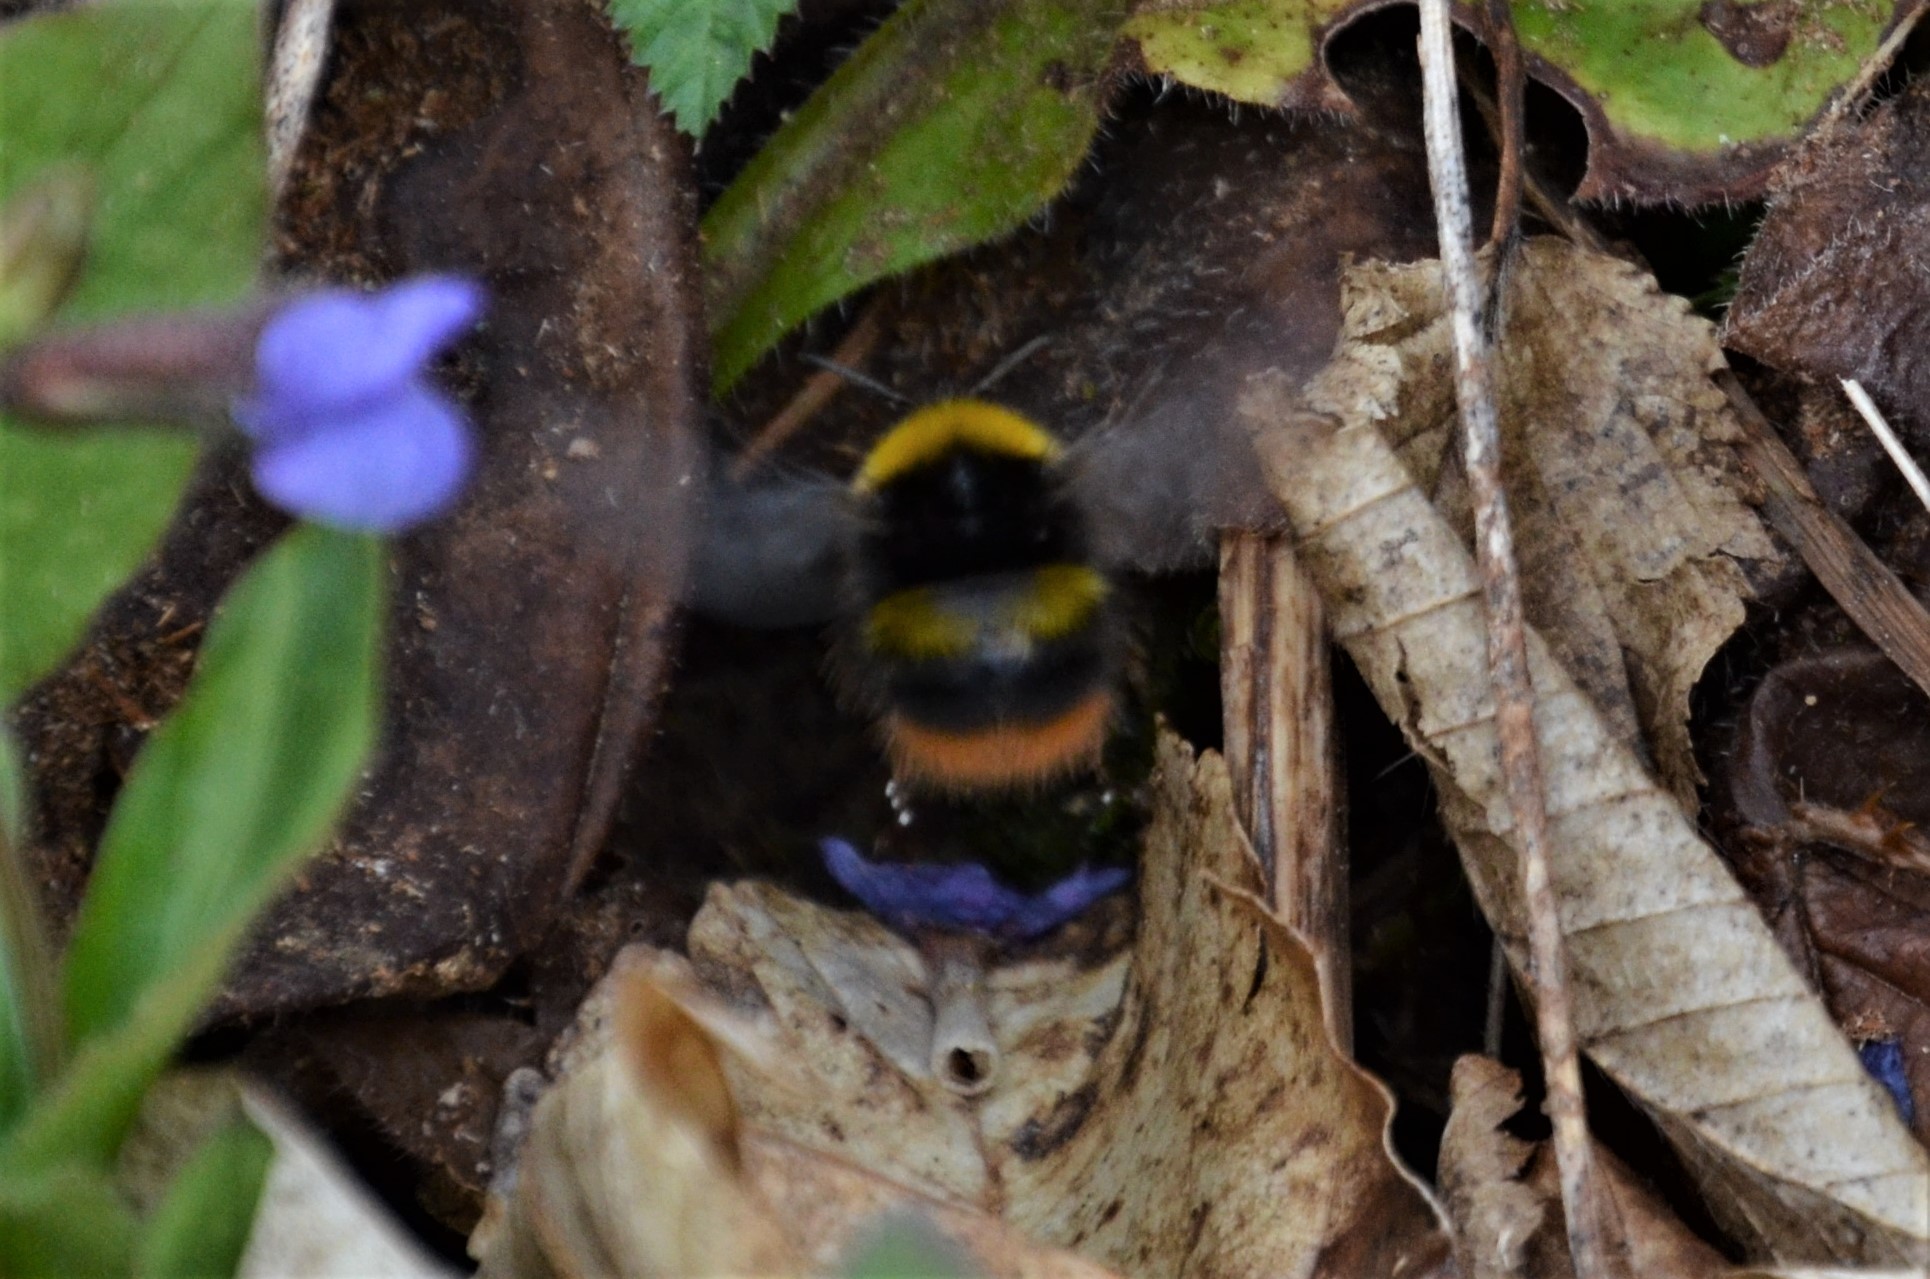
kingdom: Animalia
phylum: Arthropoda
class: Insecta
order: Hymenoptera
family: Apidae
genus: Bombus
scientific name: Bombus pratorum
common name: Early humble-bee
